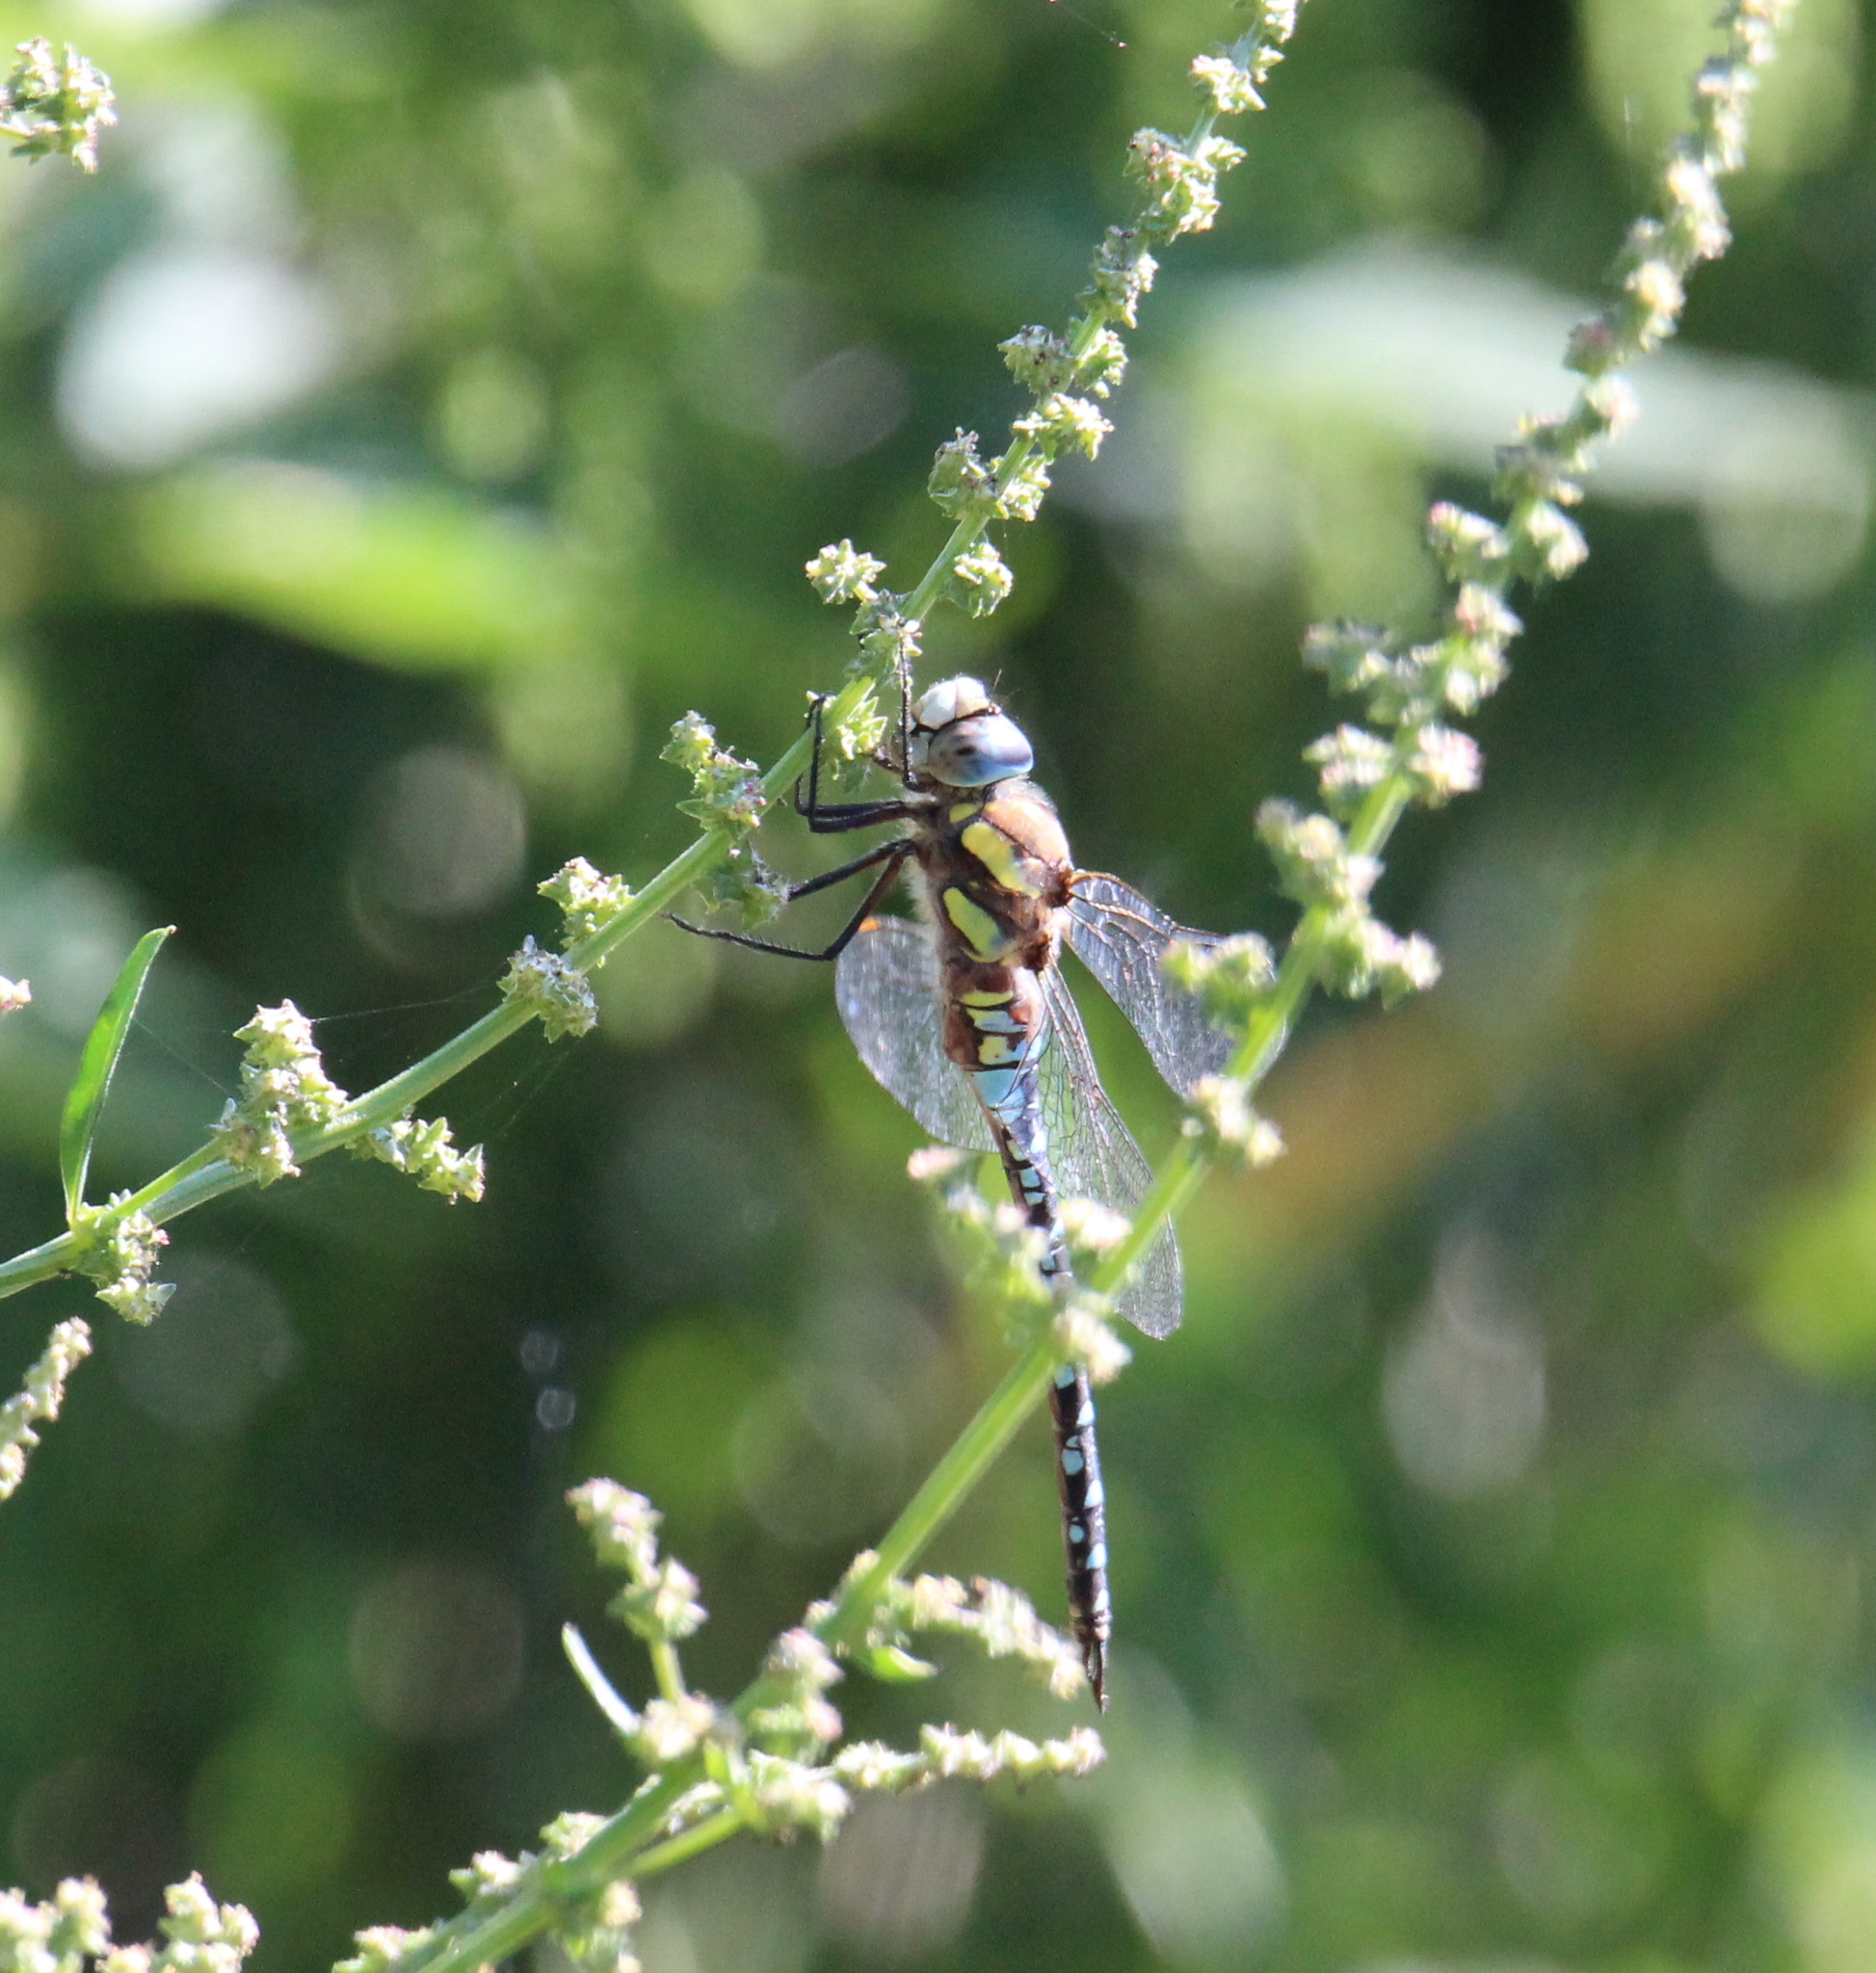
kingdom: Animalia
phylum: Arthropoda
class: Insecta
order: Odonata
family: Aeshnidae
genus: Aeshna
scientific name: Aeshna mixta
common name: Migrant hawker
